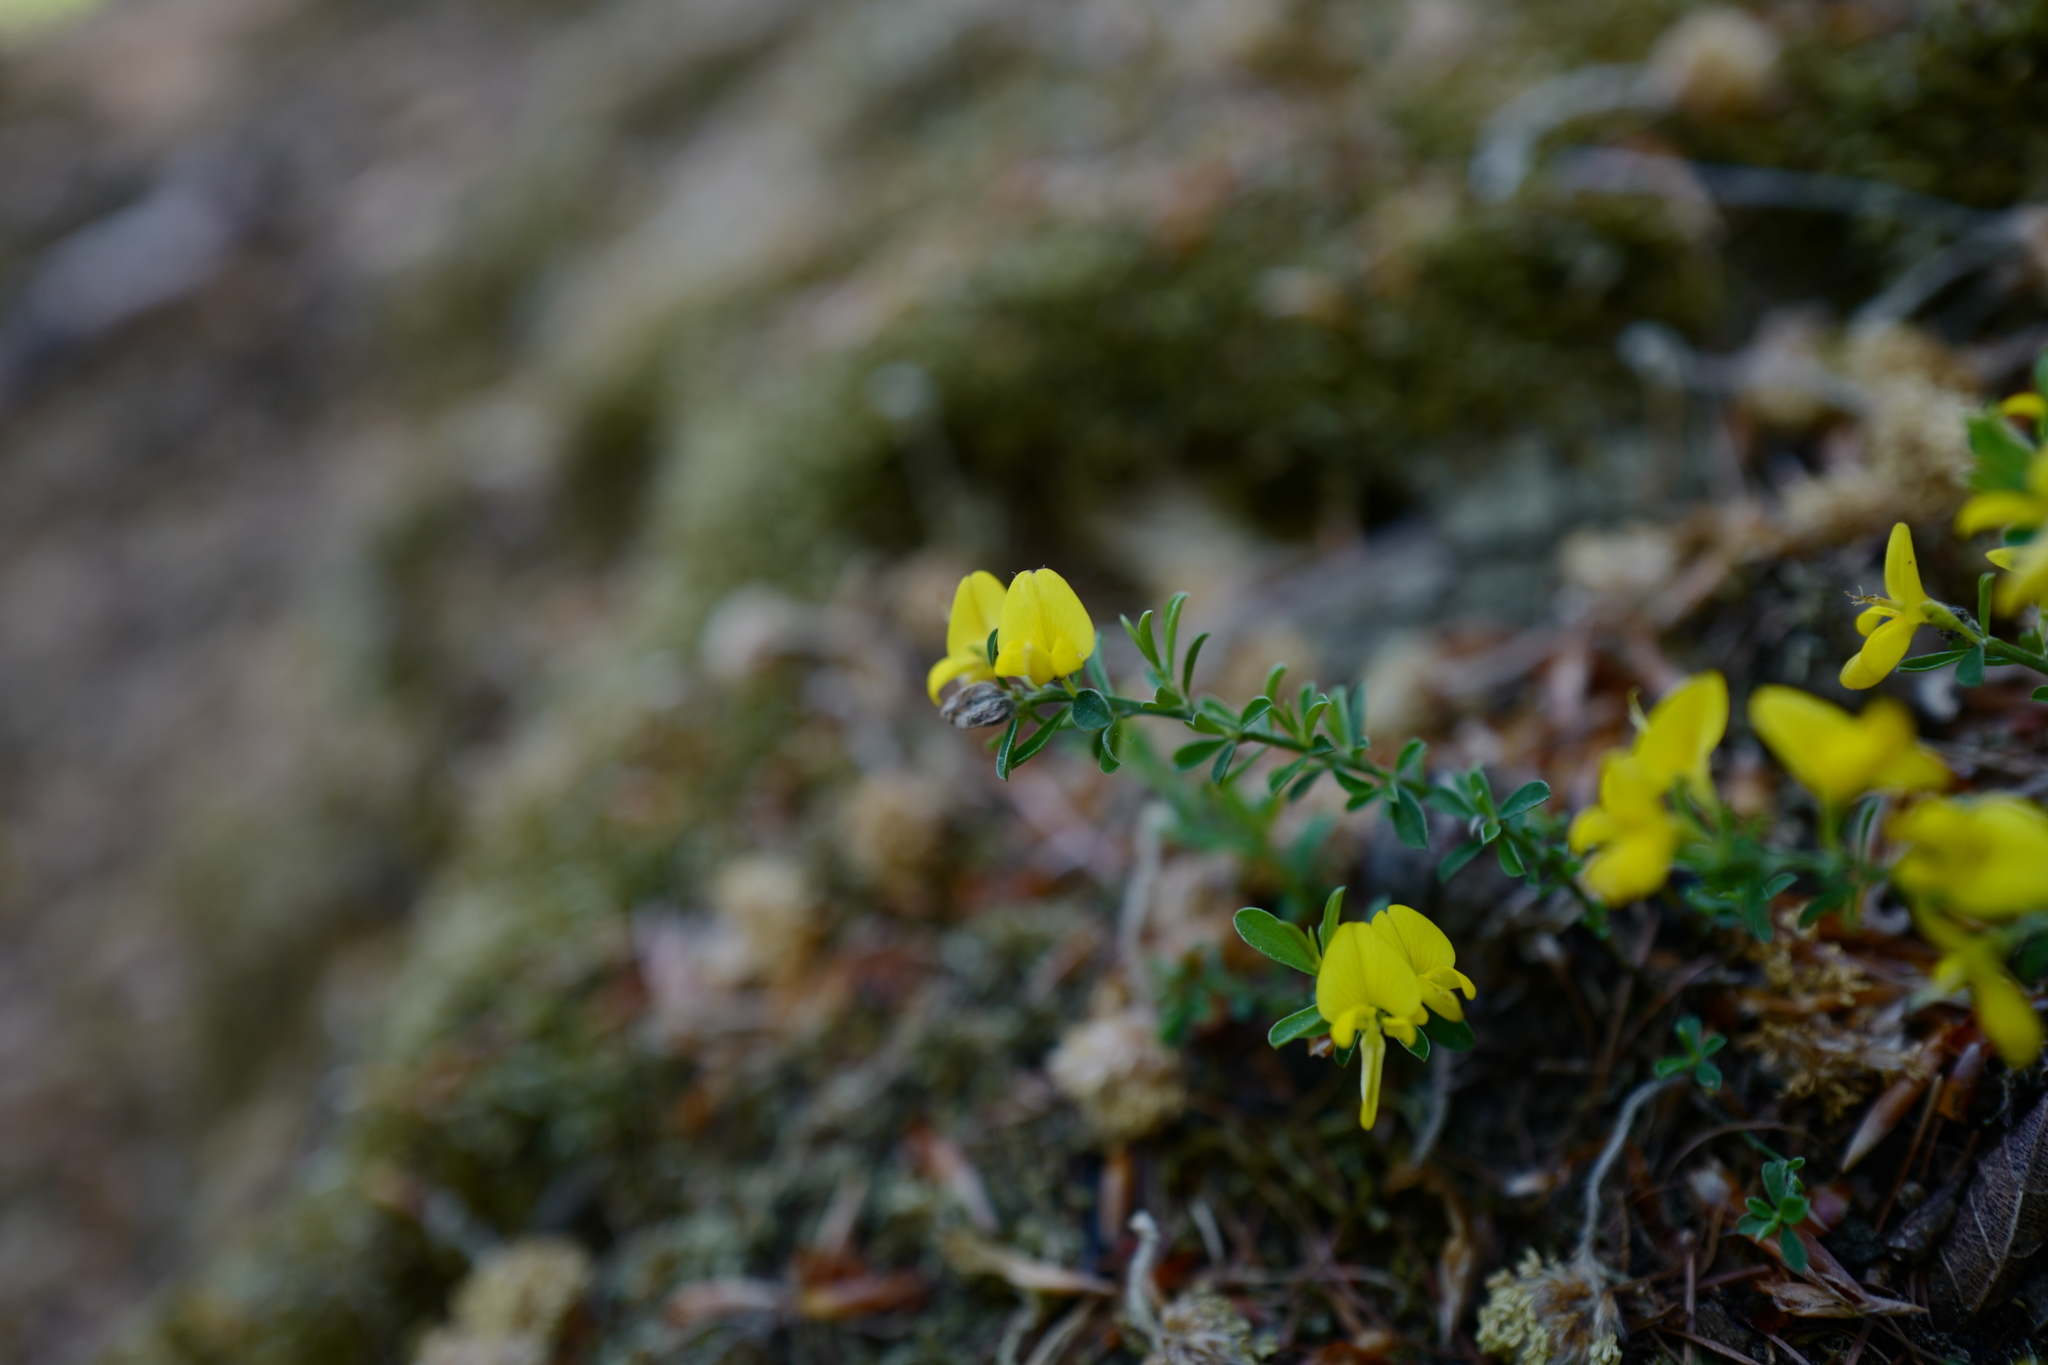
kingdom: Plantae
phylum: Tracheophyta
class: Magnoliopsida
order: Fabales
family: Fabaceae
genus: Genista
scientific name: Genista pilosa
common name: Hairy greenweed
